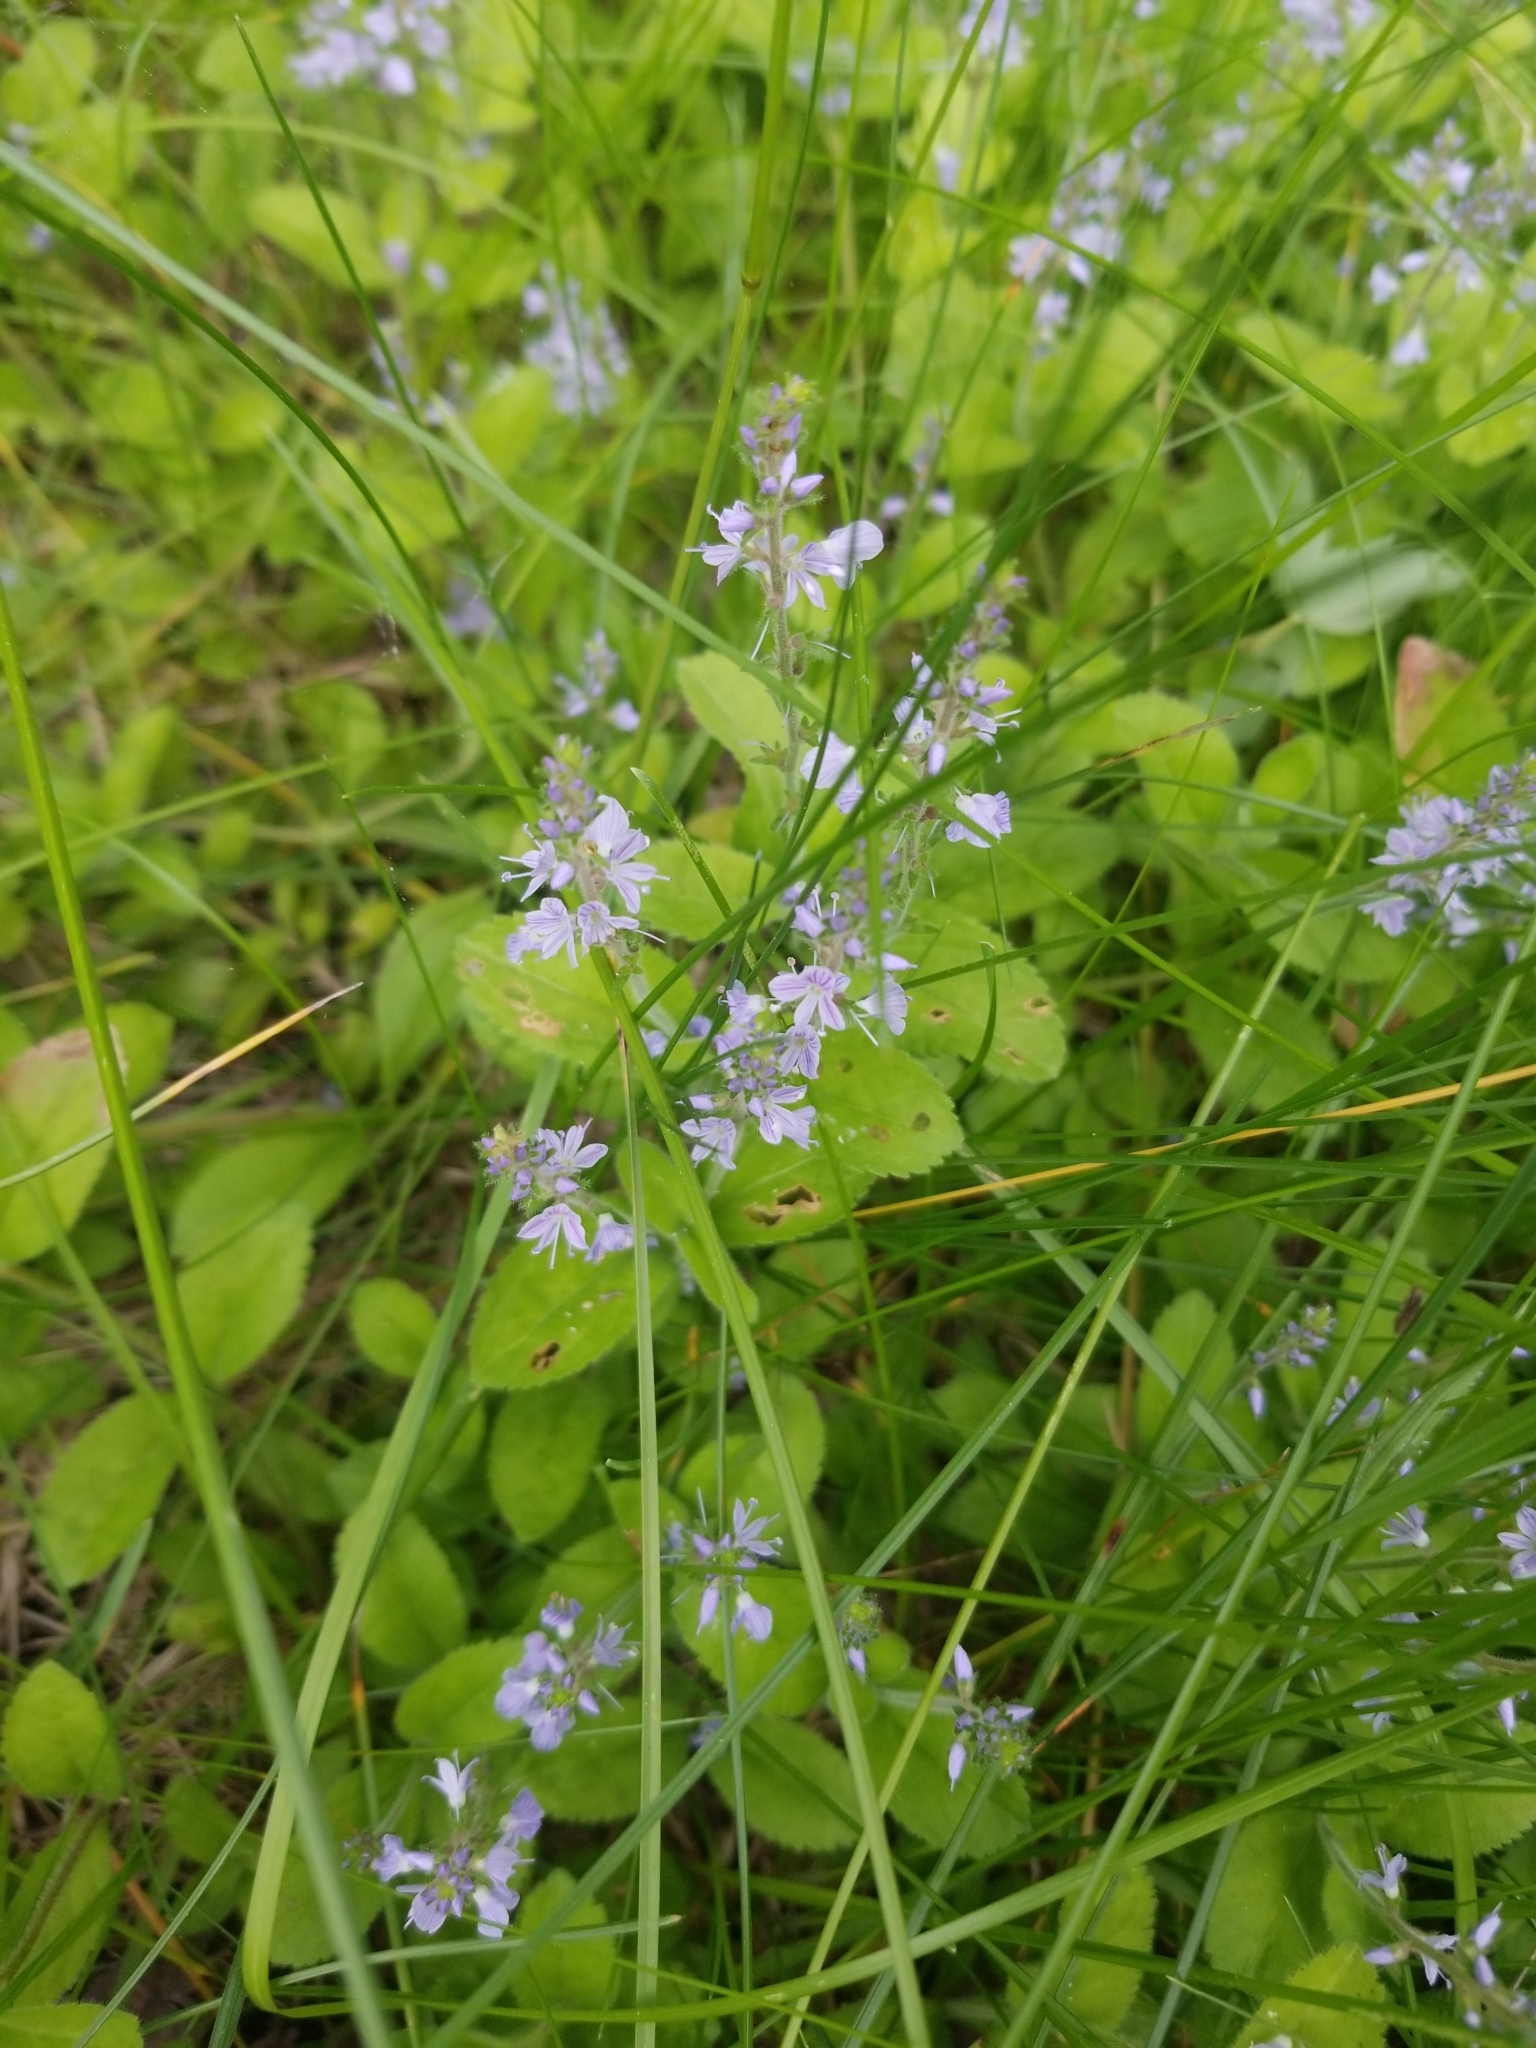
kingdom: Plantae
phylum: Tracheophyta
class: Magnoliopsida
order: Lamiales
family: Plantaginaceae
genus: Veronica
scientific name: Veronica officinalis
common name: Common speedwell
